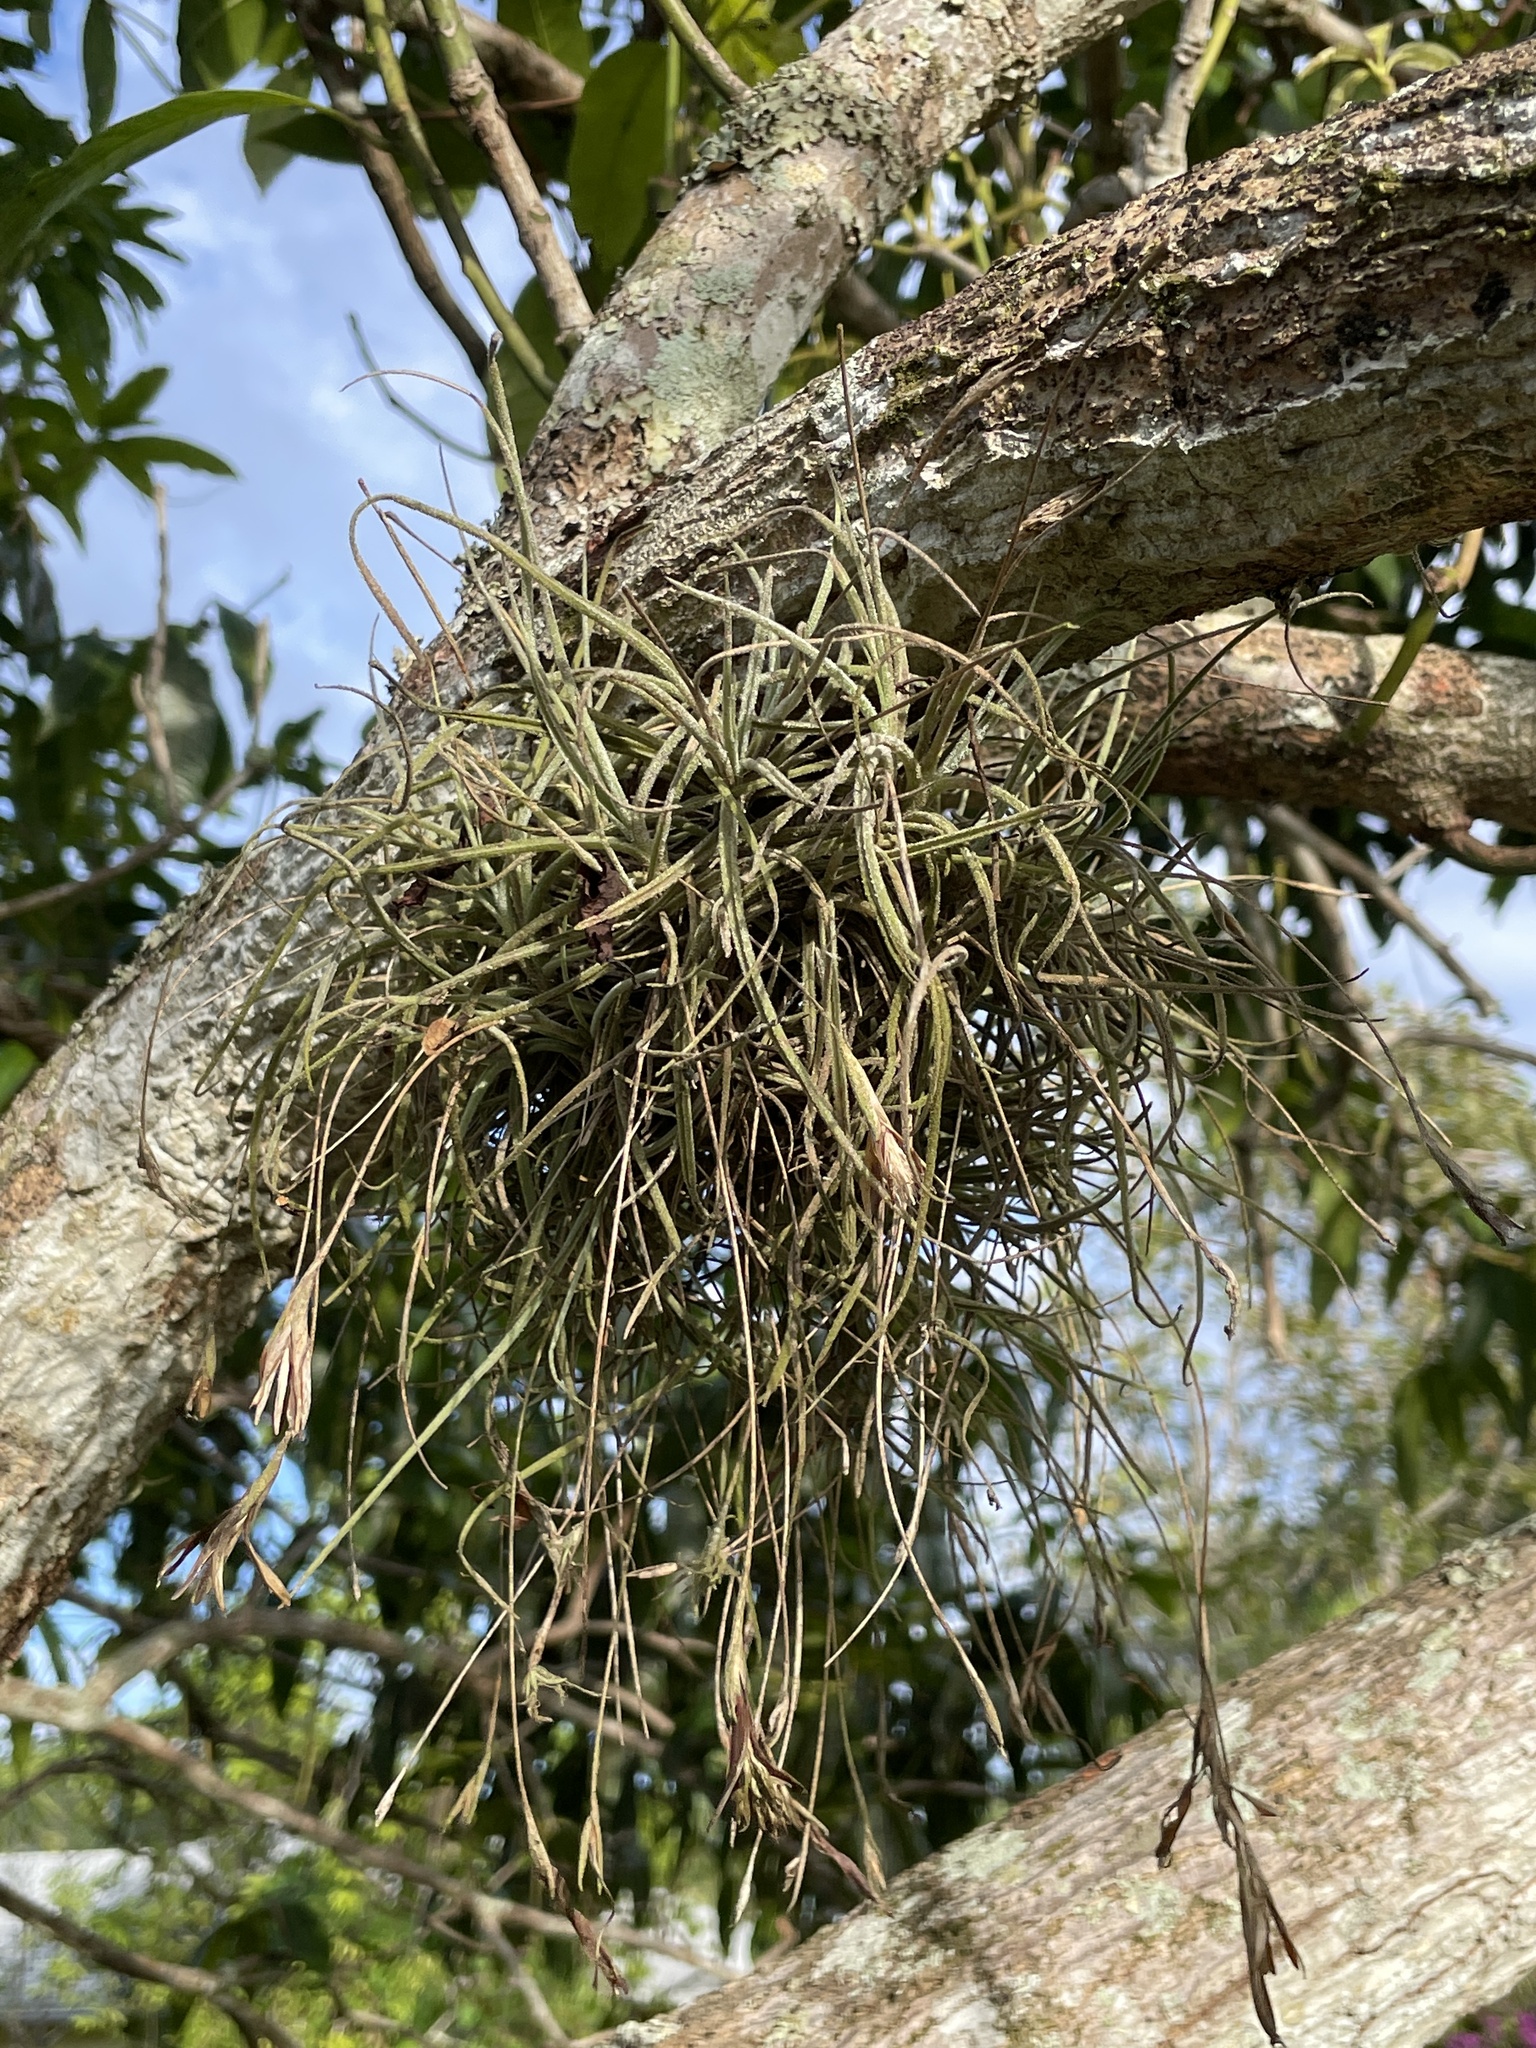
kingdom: Plantae
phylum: Tracheophyta
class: Liliopsida
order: Poales
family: Bromeliaceae
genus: Tillandsia
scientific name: Tillandsia recurvata
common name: Small ballmoss
